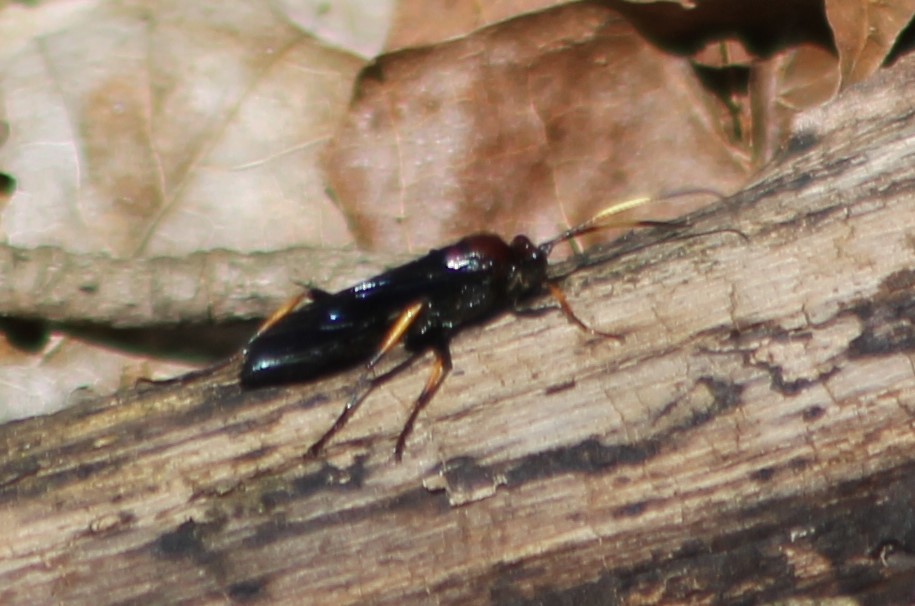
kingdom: Animalia
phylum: Arthropoda
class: Insecta
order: Hymenoptera
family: Ichneumonidae
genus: Ichneumon
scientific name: Ichneumon centrator
